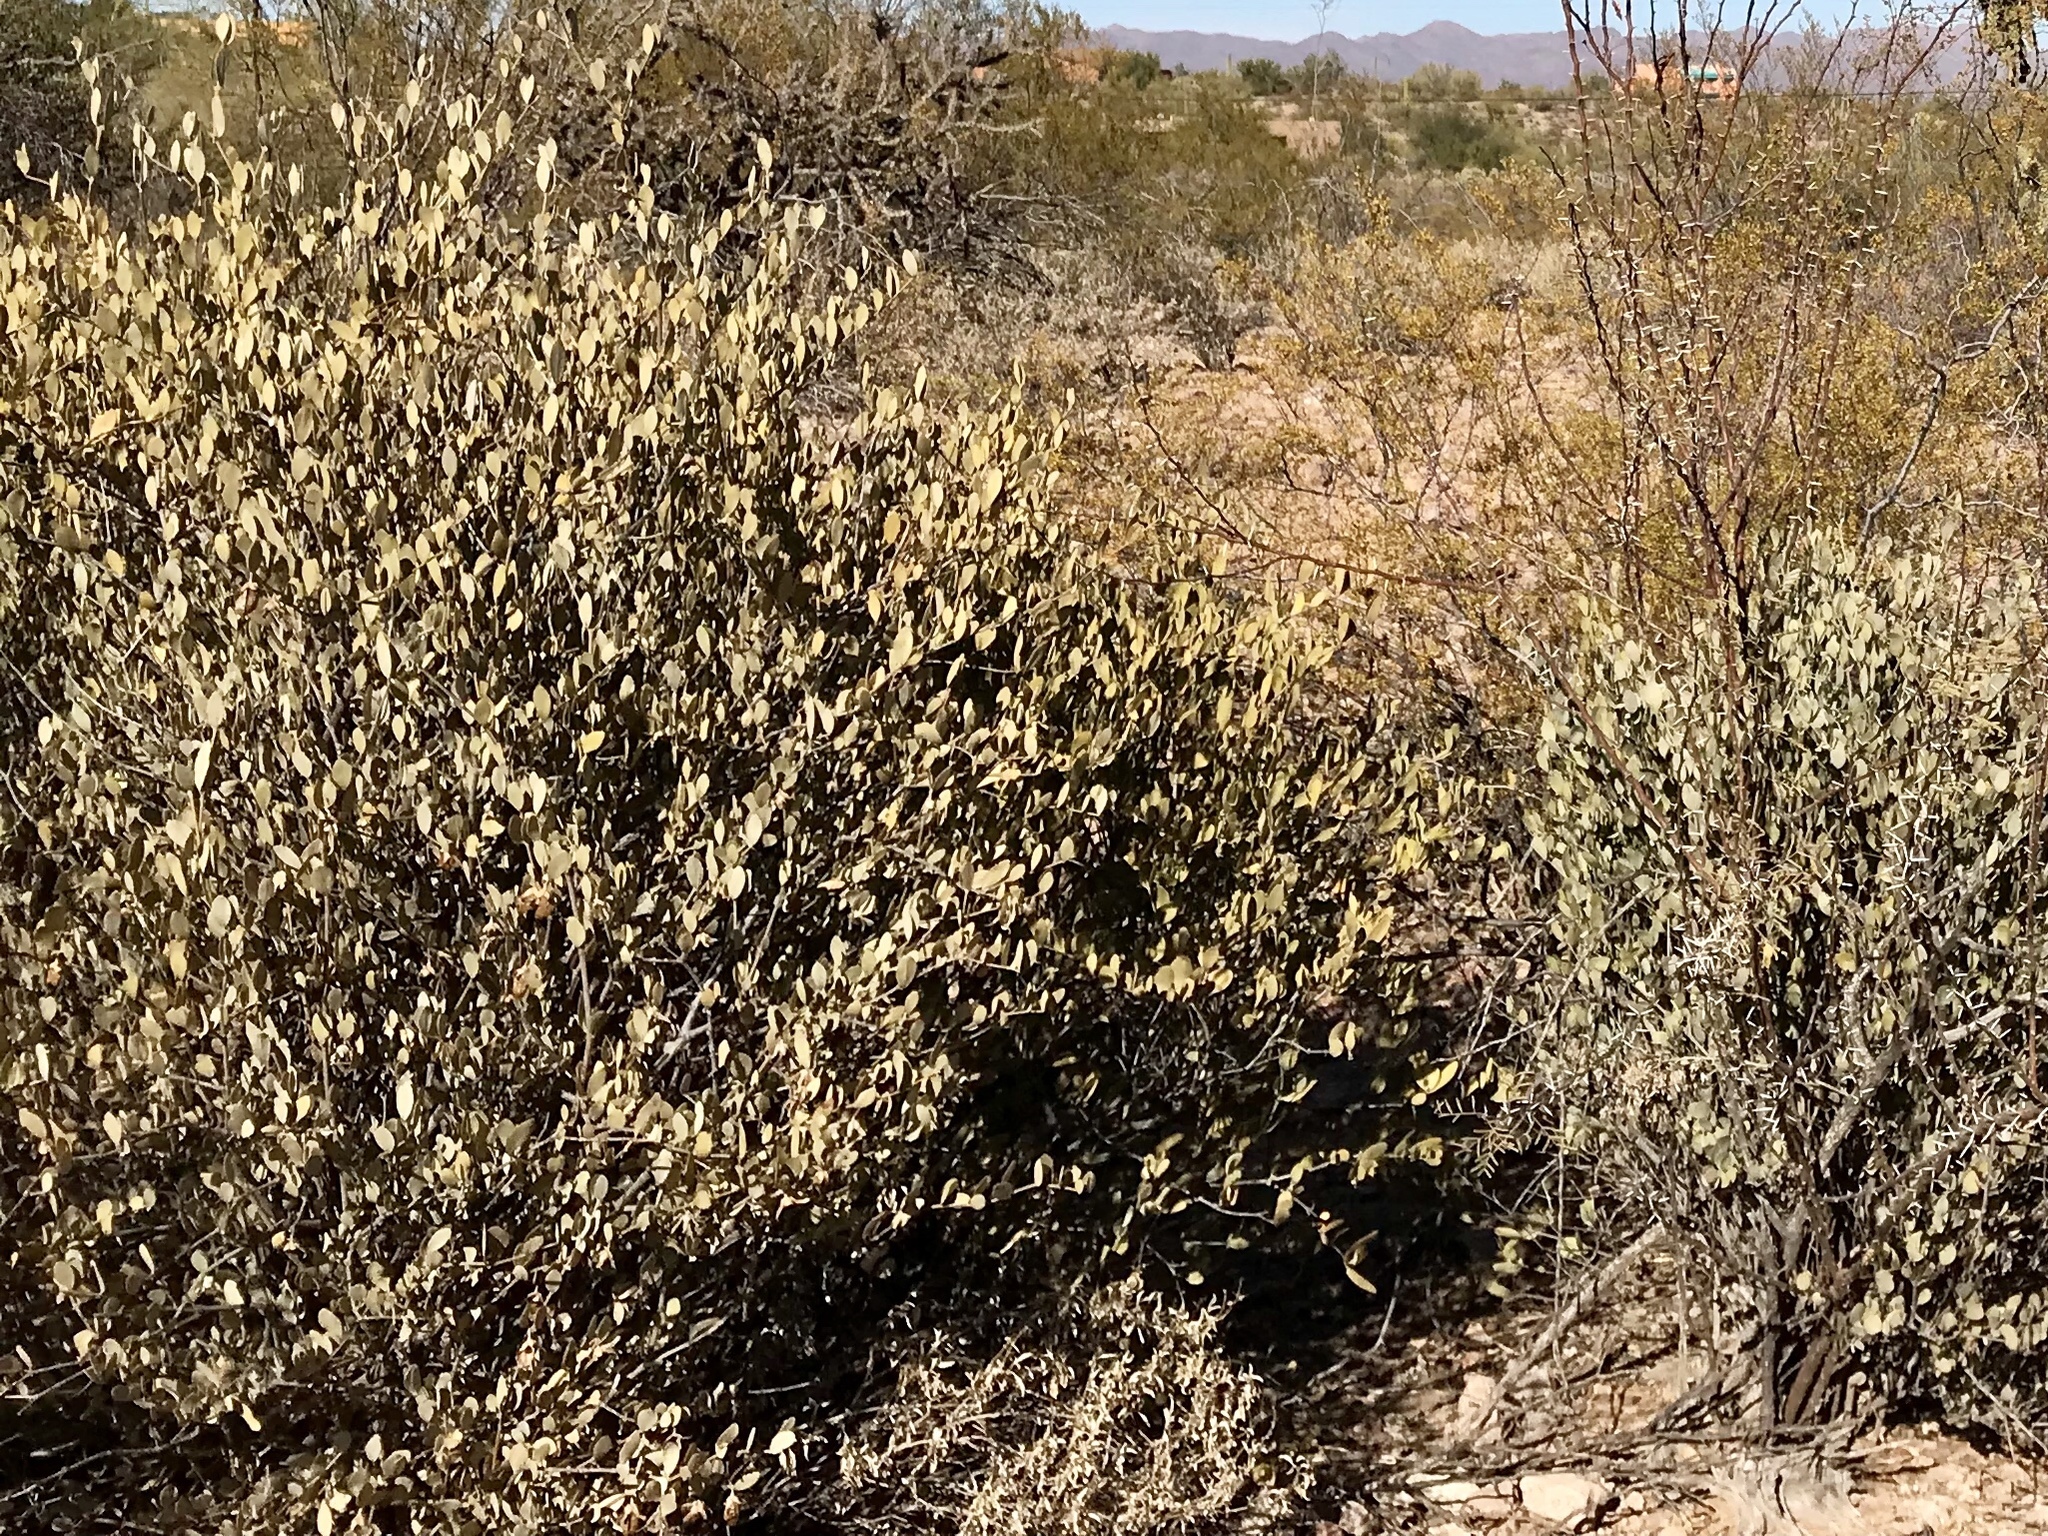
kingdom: Plantae
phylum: Tracheophyta
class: Magnoliopsida
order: Caryophyllales
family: Simmondsiaceae
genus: Simmondsia
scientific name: Simmondsia chinensis
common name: Jojoba
